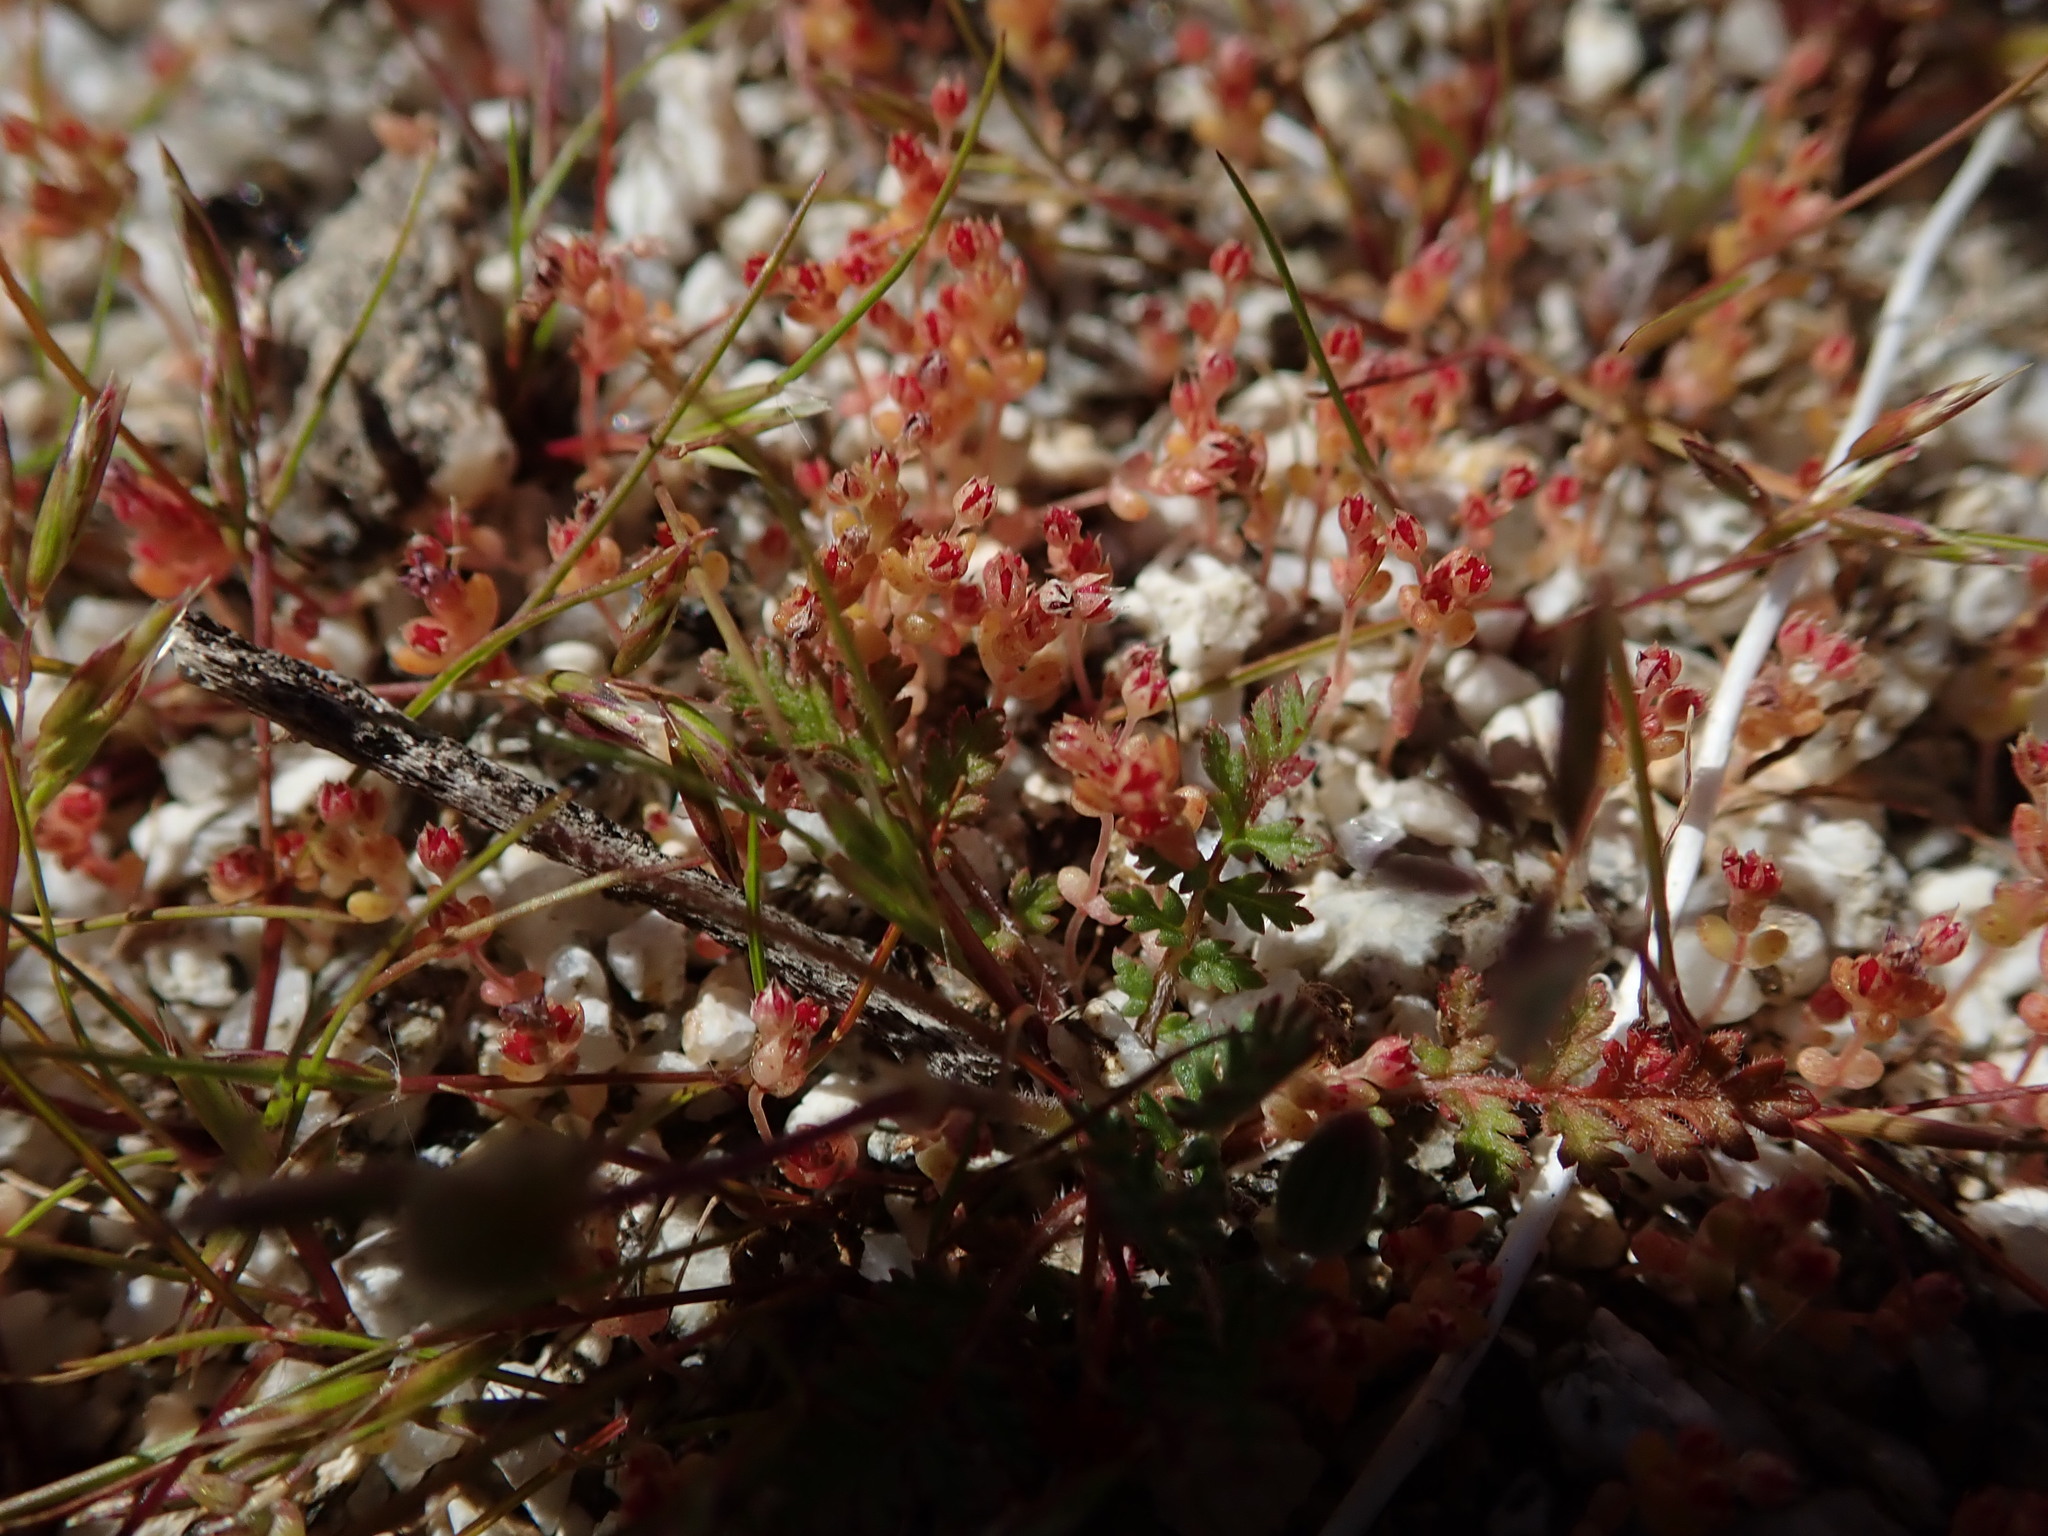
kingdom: Plantae
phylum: Tracheophyta
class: Magnoliopsida
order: Saxifragales
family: Crassulaceae
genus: Crassula
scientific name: Crassula connata
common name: Erect pygmyweed
